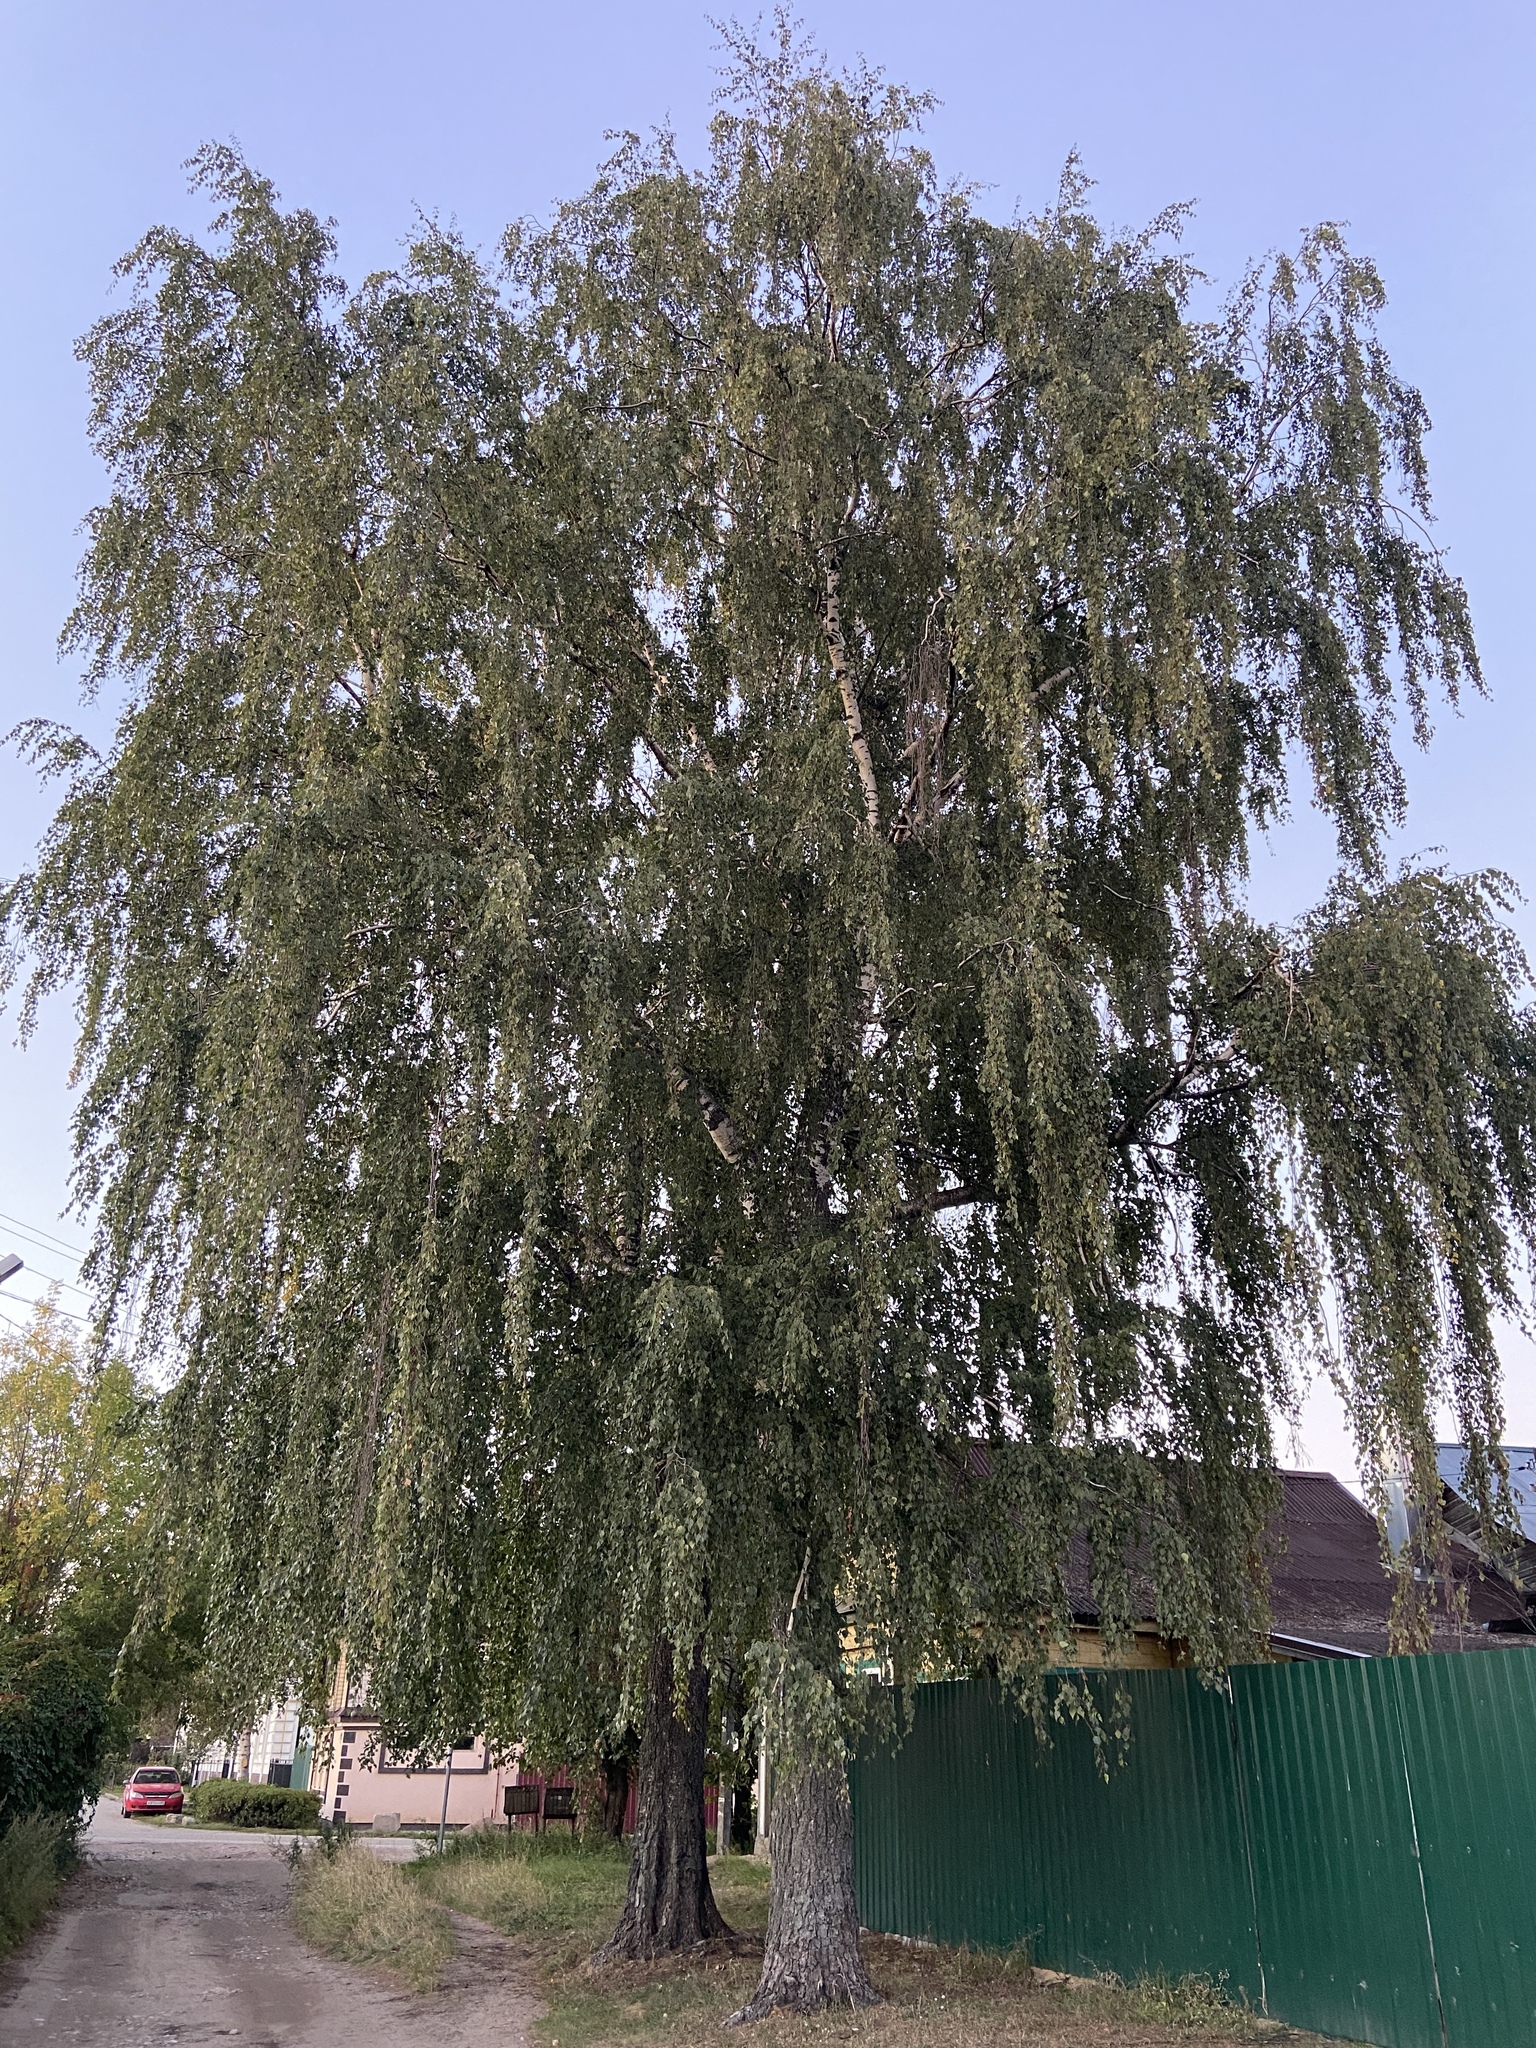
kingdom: Plantae
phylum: Tracheophyta
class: Magnoliopsida
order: Fagales
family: Betulaceae
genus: Betula
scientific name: Betula pendula
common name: Silver birch
